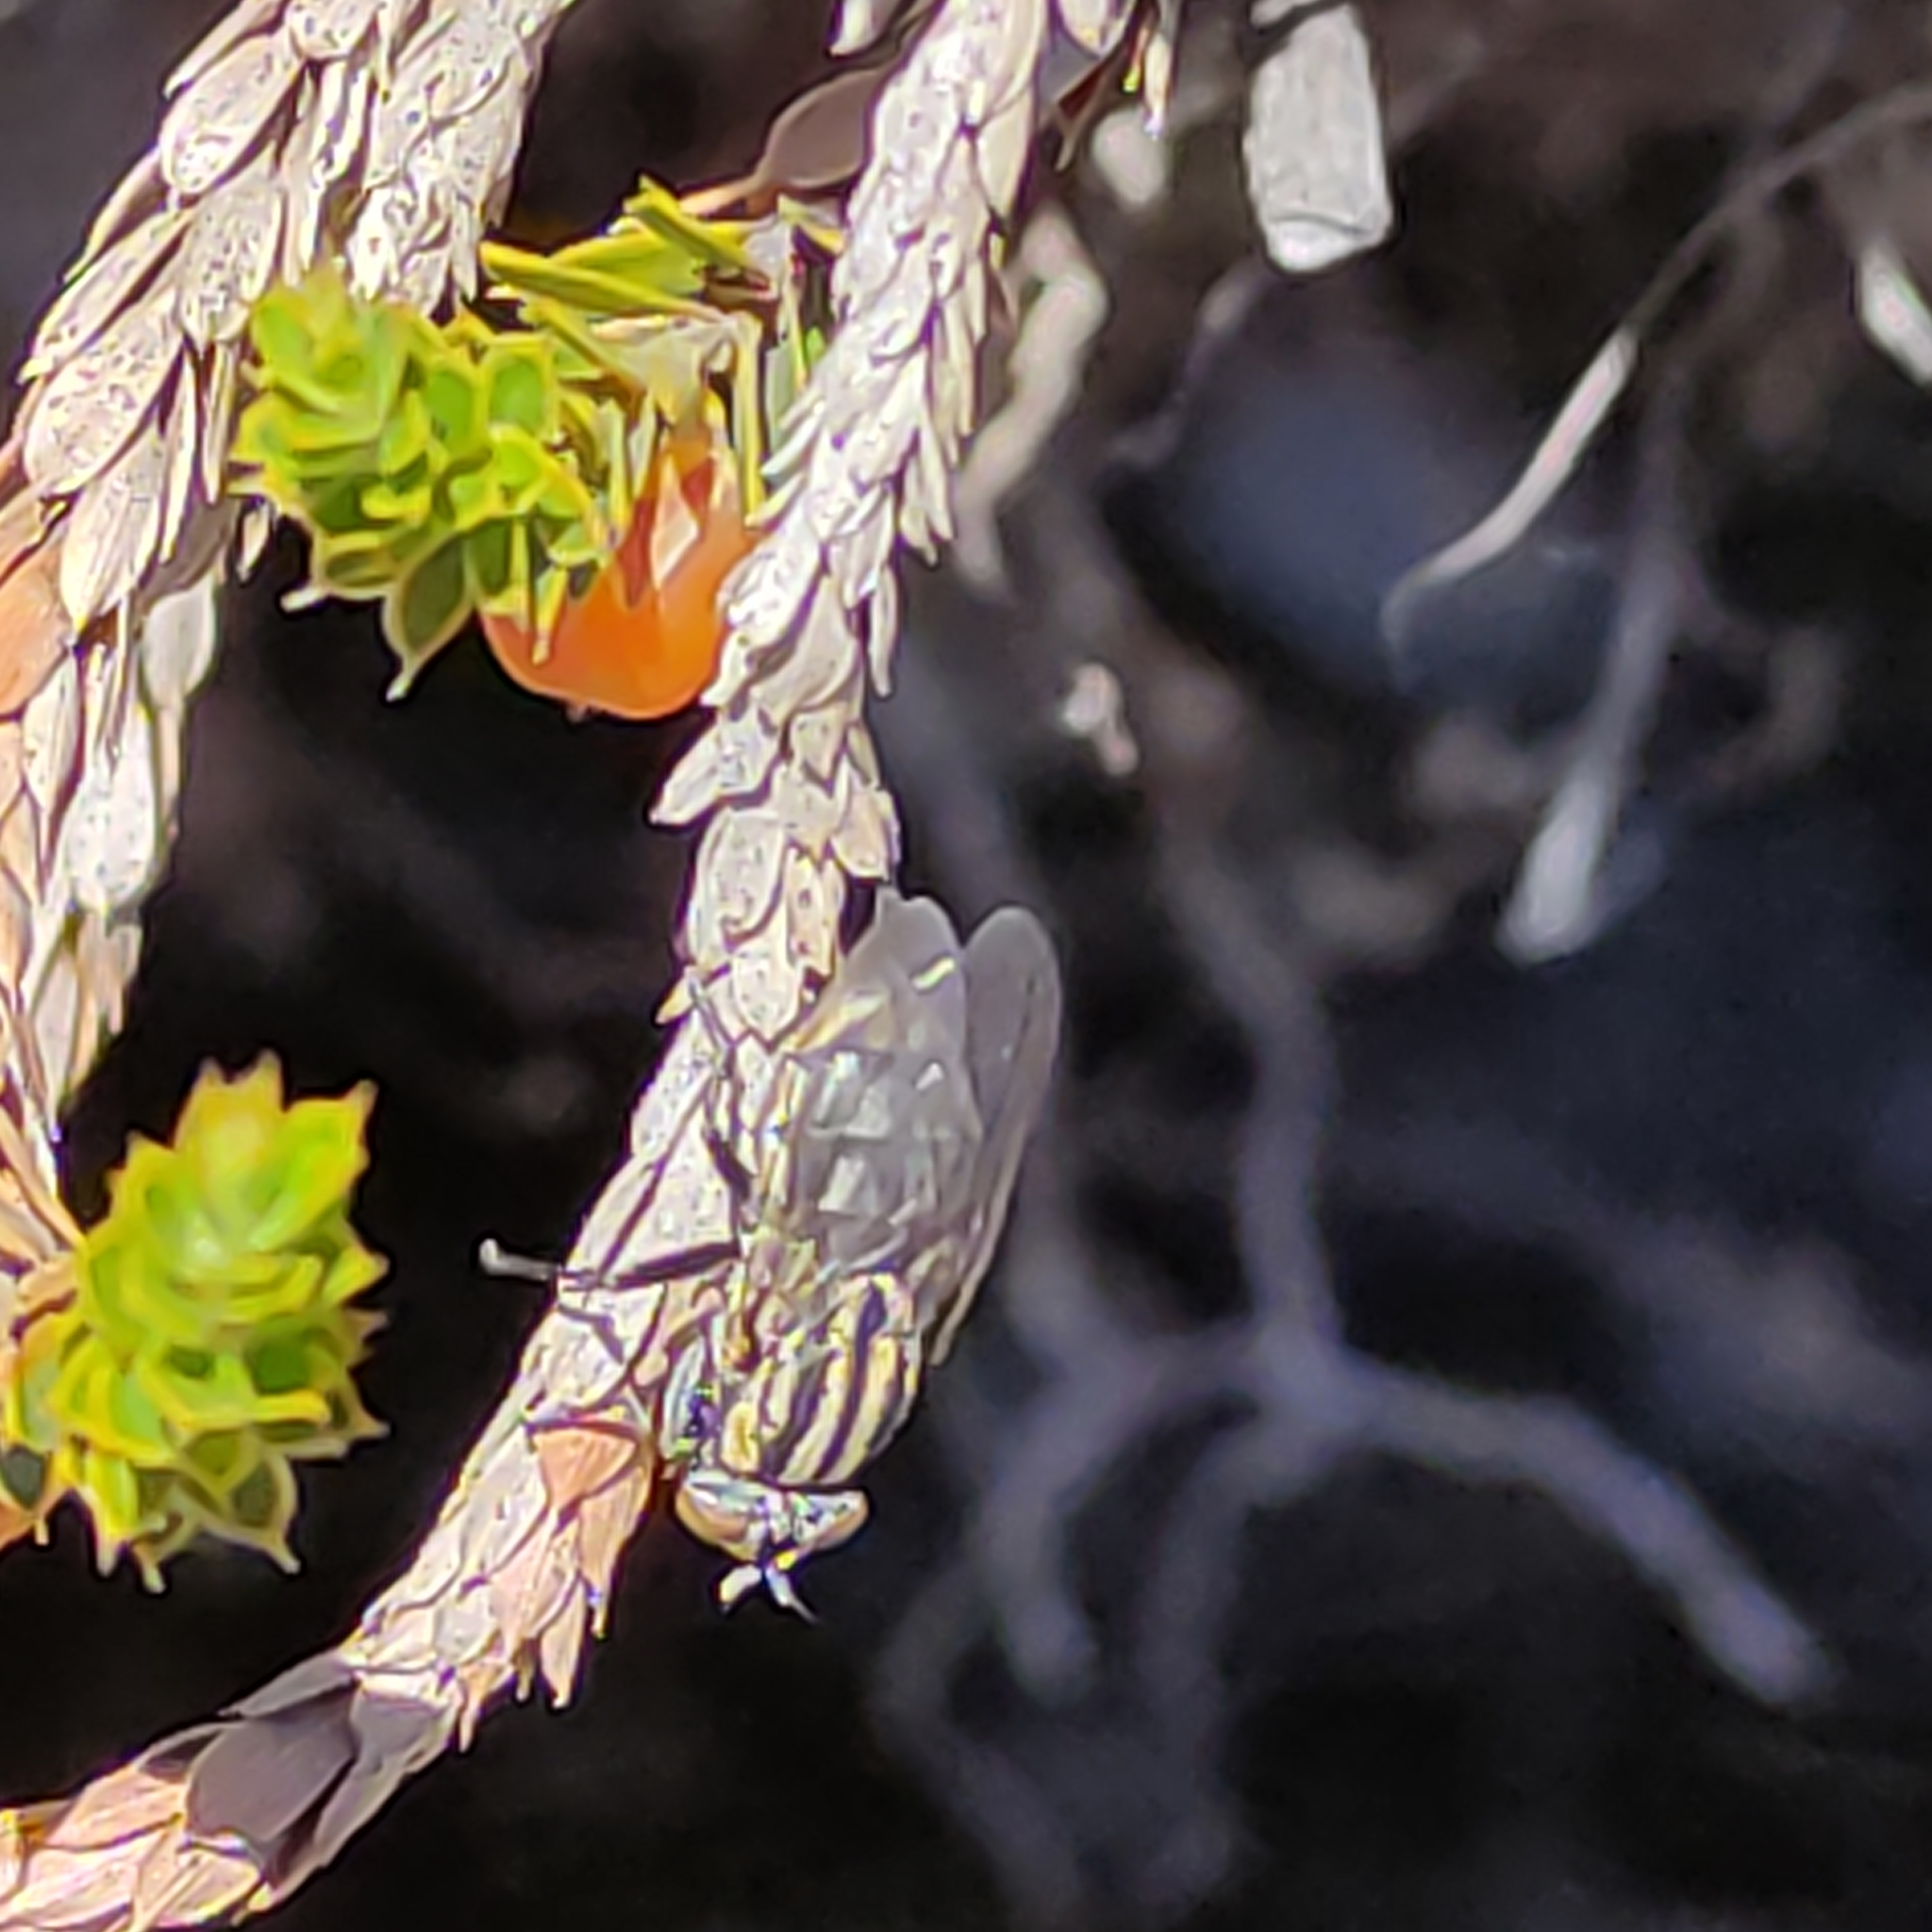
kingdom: Animalia
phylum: Arthropoda
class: Insecta
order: Diptera
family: Sarcophagidae
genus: Oxysarcodexia
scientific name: Oxysarcodexia varia
